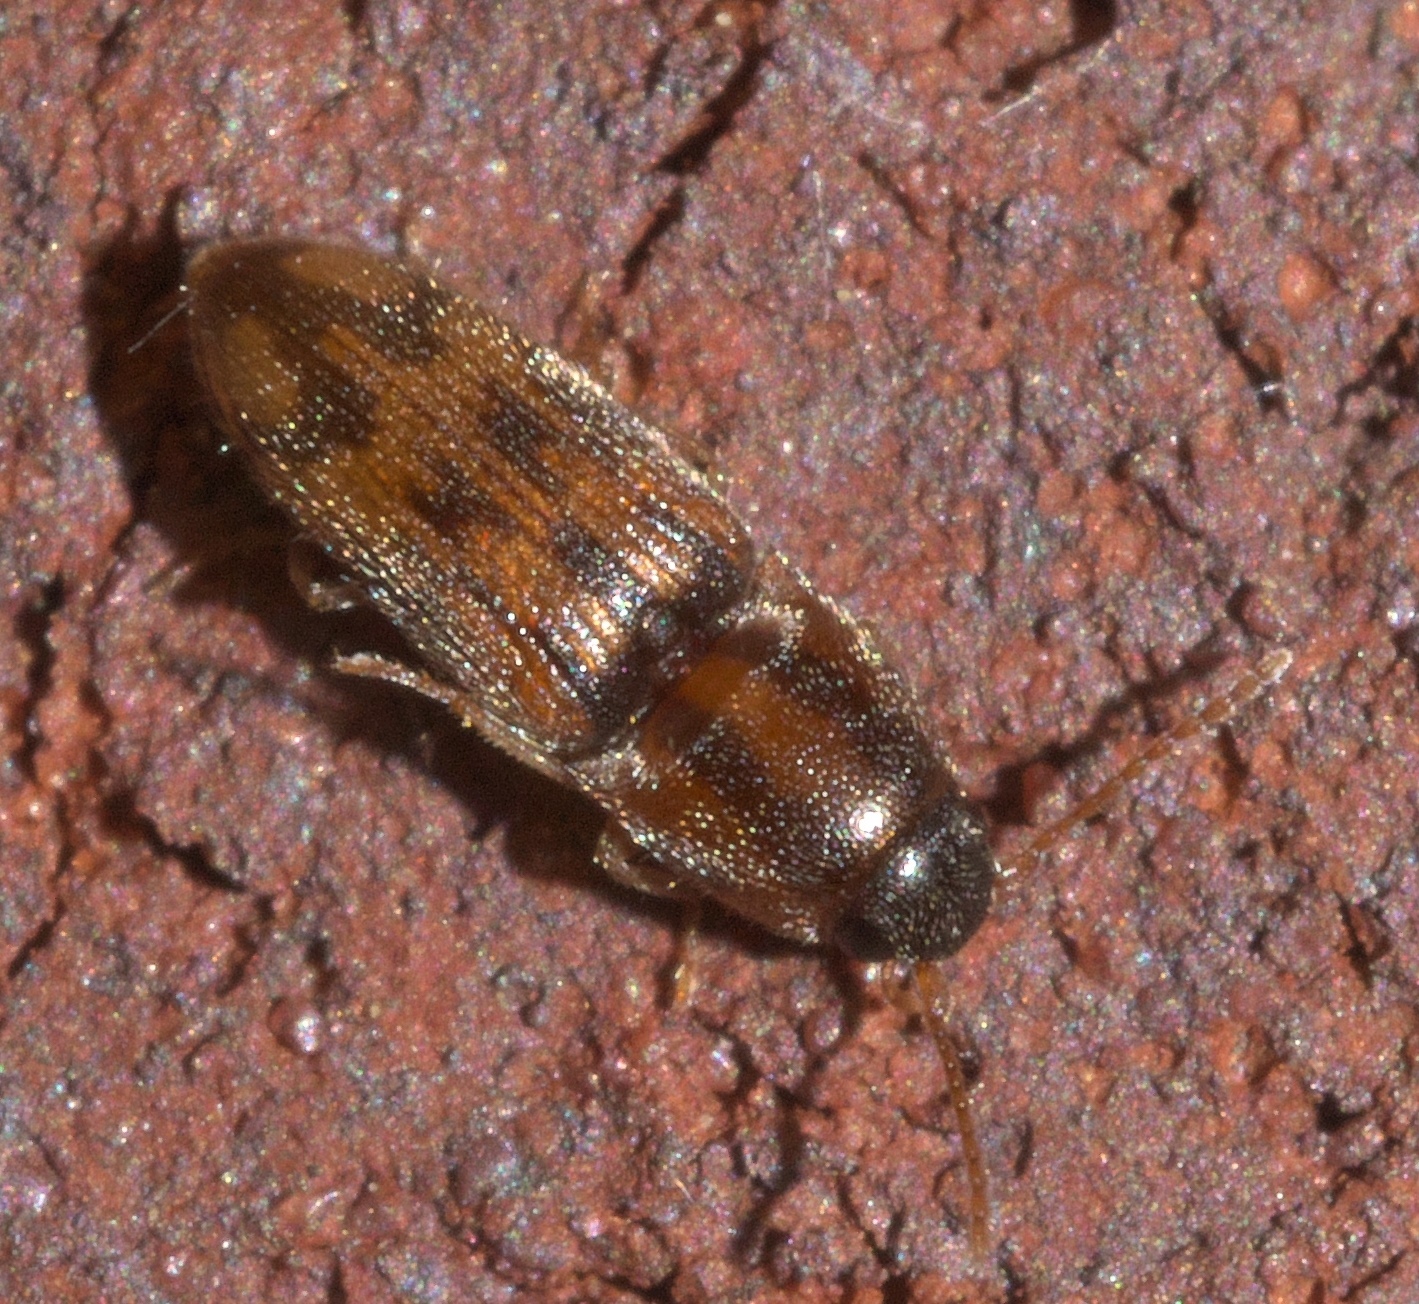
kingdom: Animalia
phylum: Arthropoda
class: Insecta
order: Coleoptera
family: Elateridae
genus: Monocrepidius
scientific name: Monocrepidius bellus
